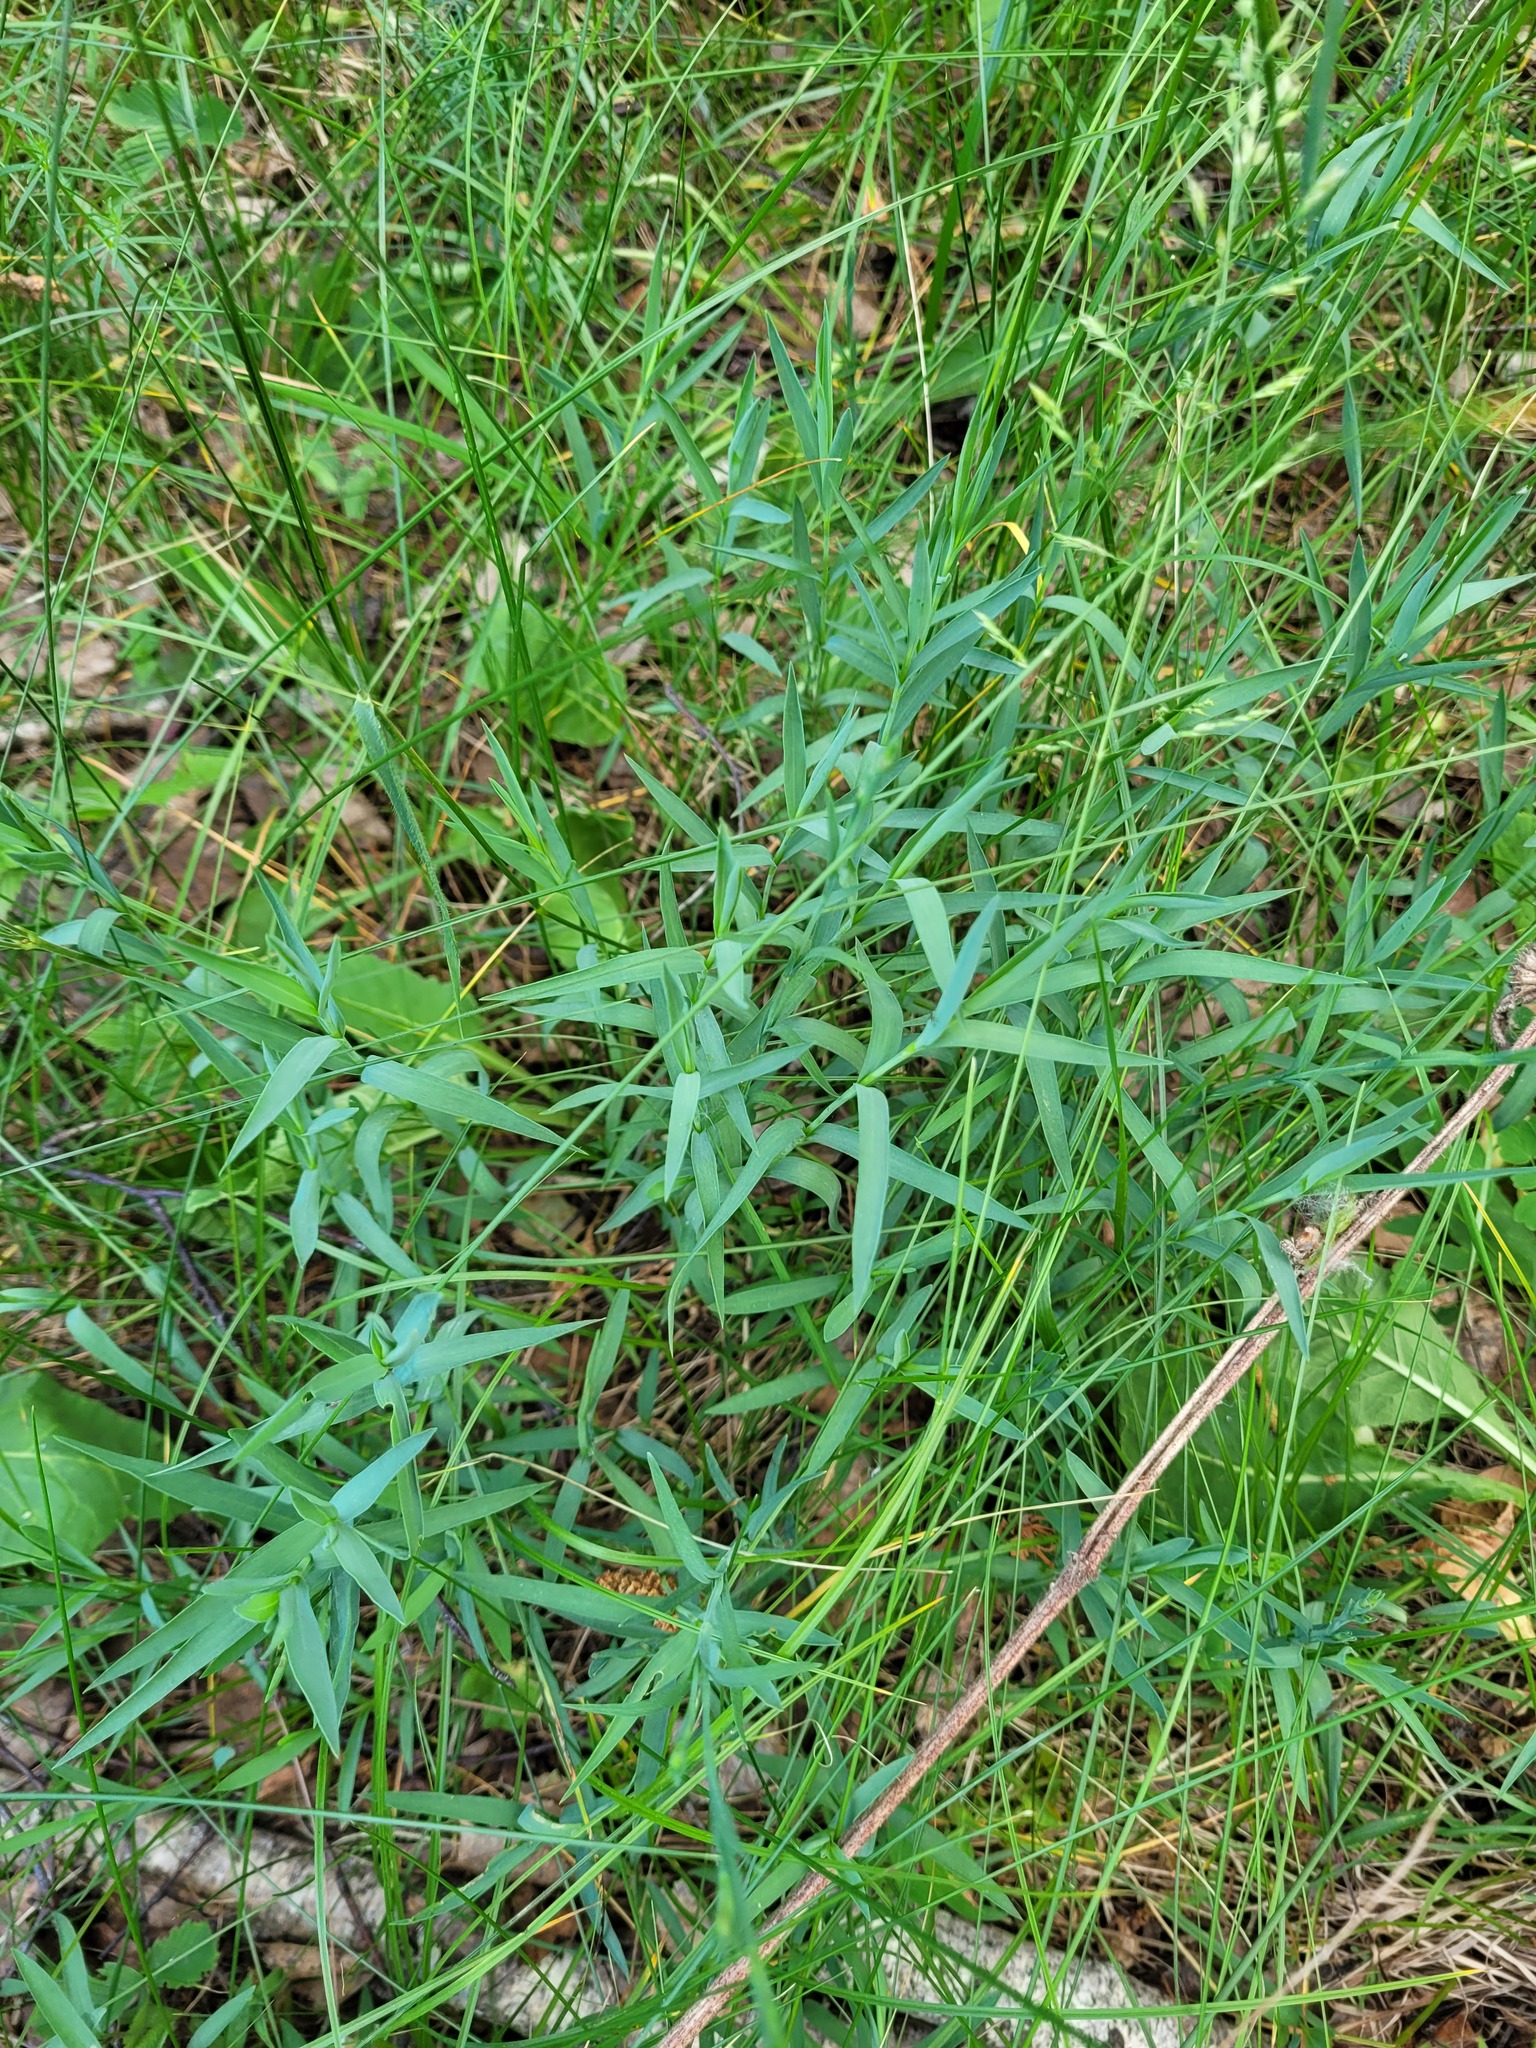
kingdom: Plantae
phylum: Tracheophyta
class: Magnoliopsida
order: Caryophyllales
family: Caryophyllaceae
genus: Dianthus
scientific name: Dianthus deltoides
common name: Maiden pink
